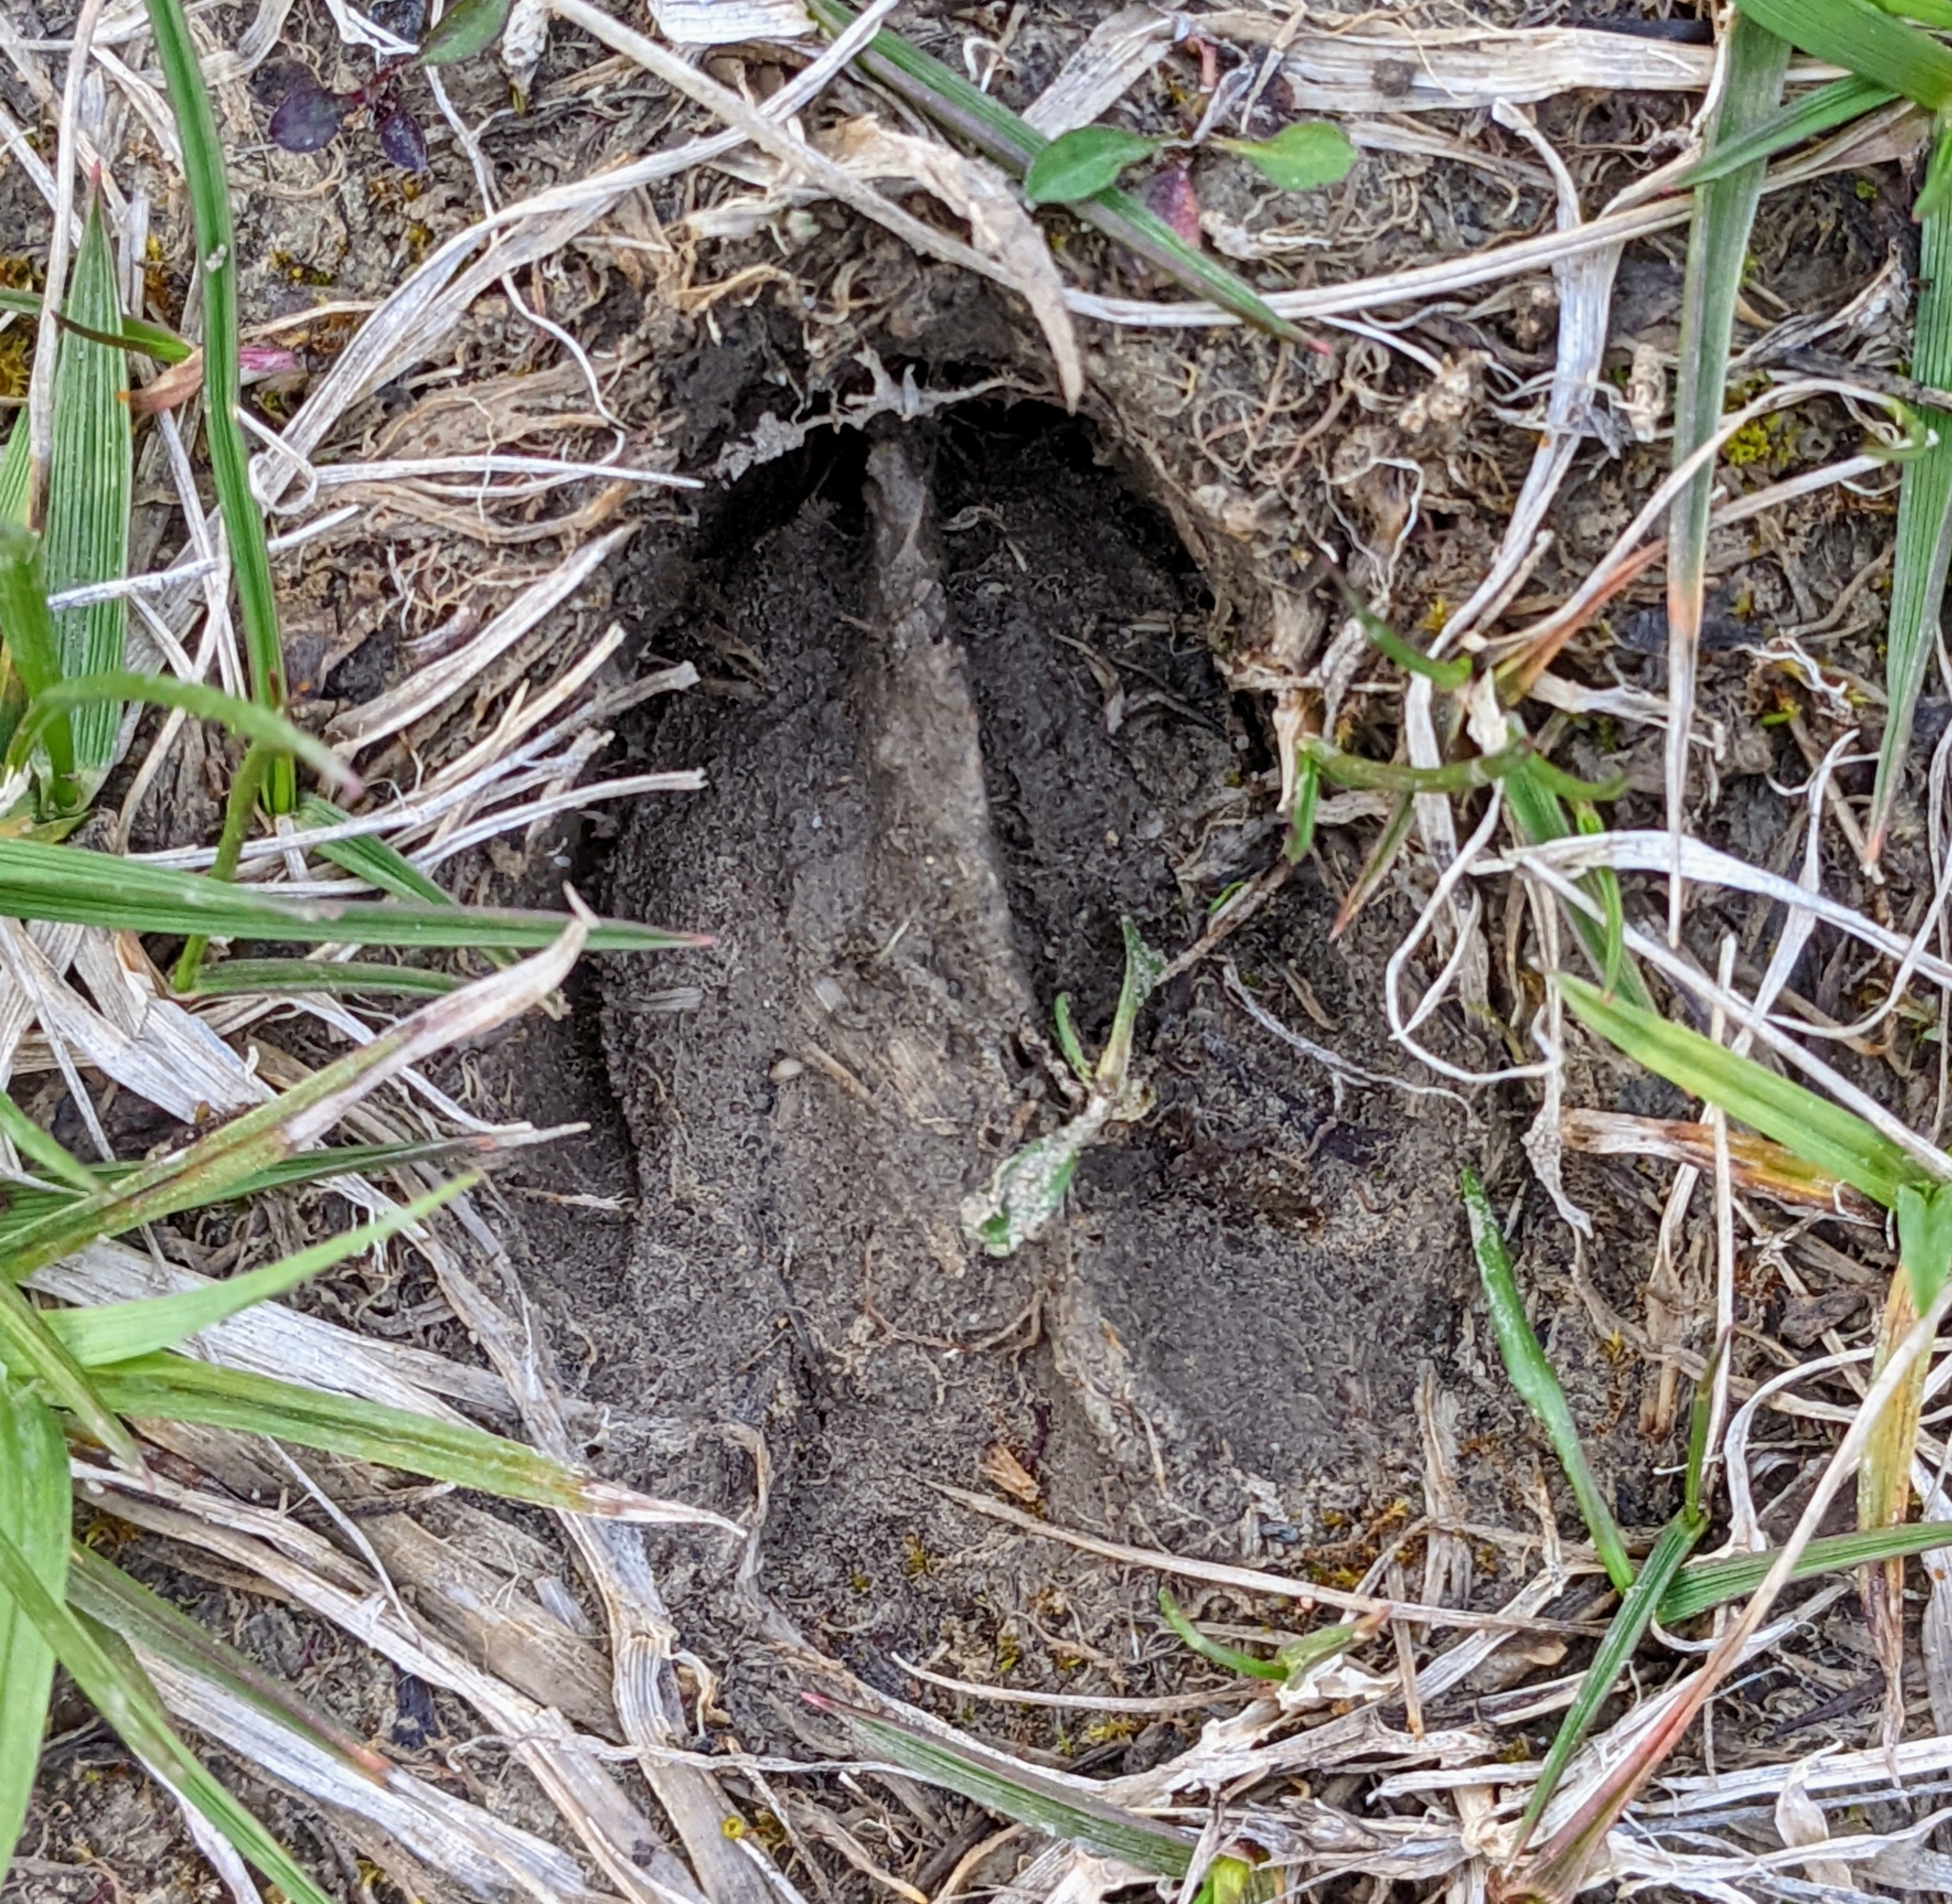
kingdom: Animalia
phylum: Chordata
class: Mammalia
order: Artiodactyla
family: Cervidae
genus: Odocoileus
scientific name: Odocoileus virginianus
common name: White-tailed deer
